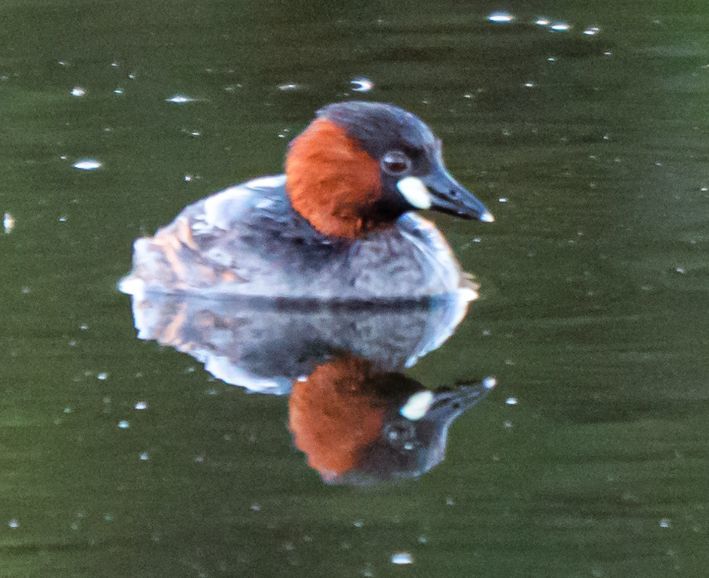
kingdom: Animalia
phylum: Chordata
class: Aves
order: Podicipediformes
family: Podicipedidae
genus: Tachybaptus
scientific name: Tachybaptus ruficollis
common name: Little grebe
